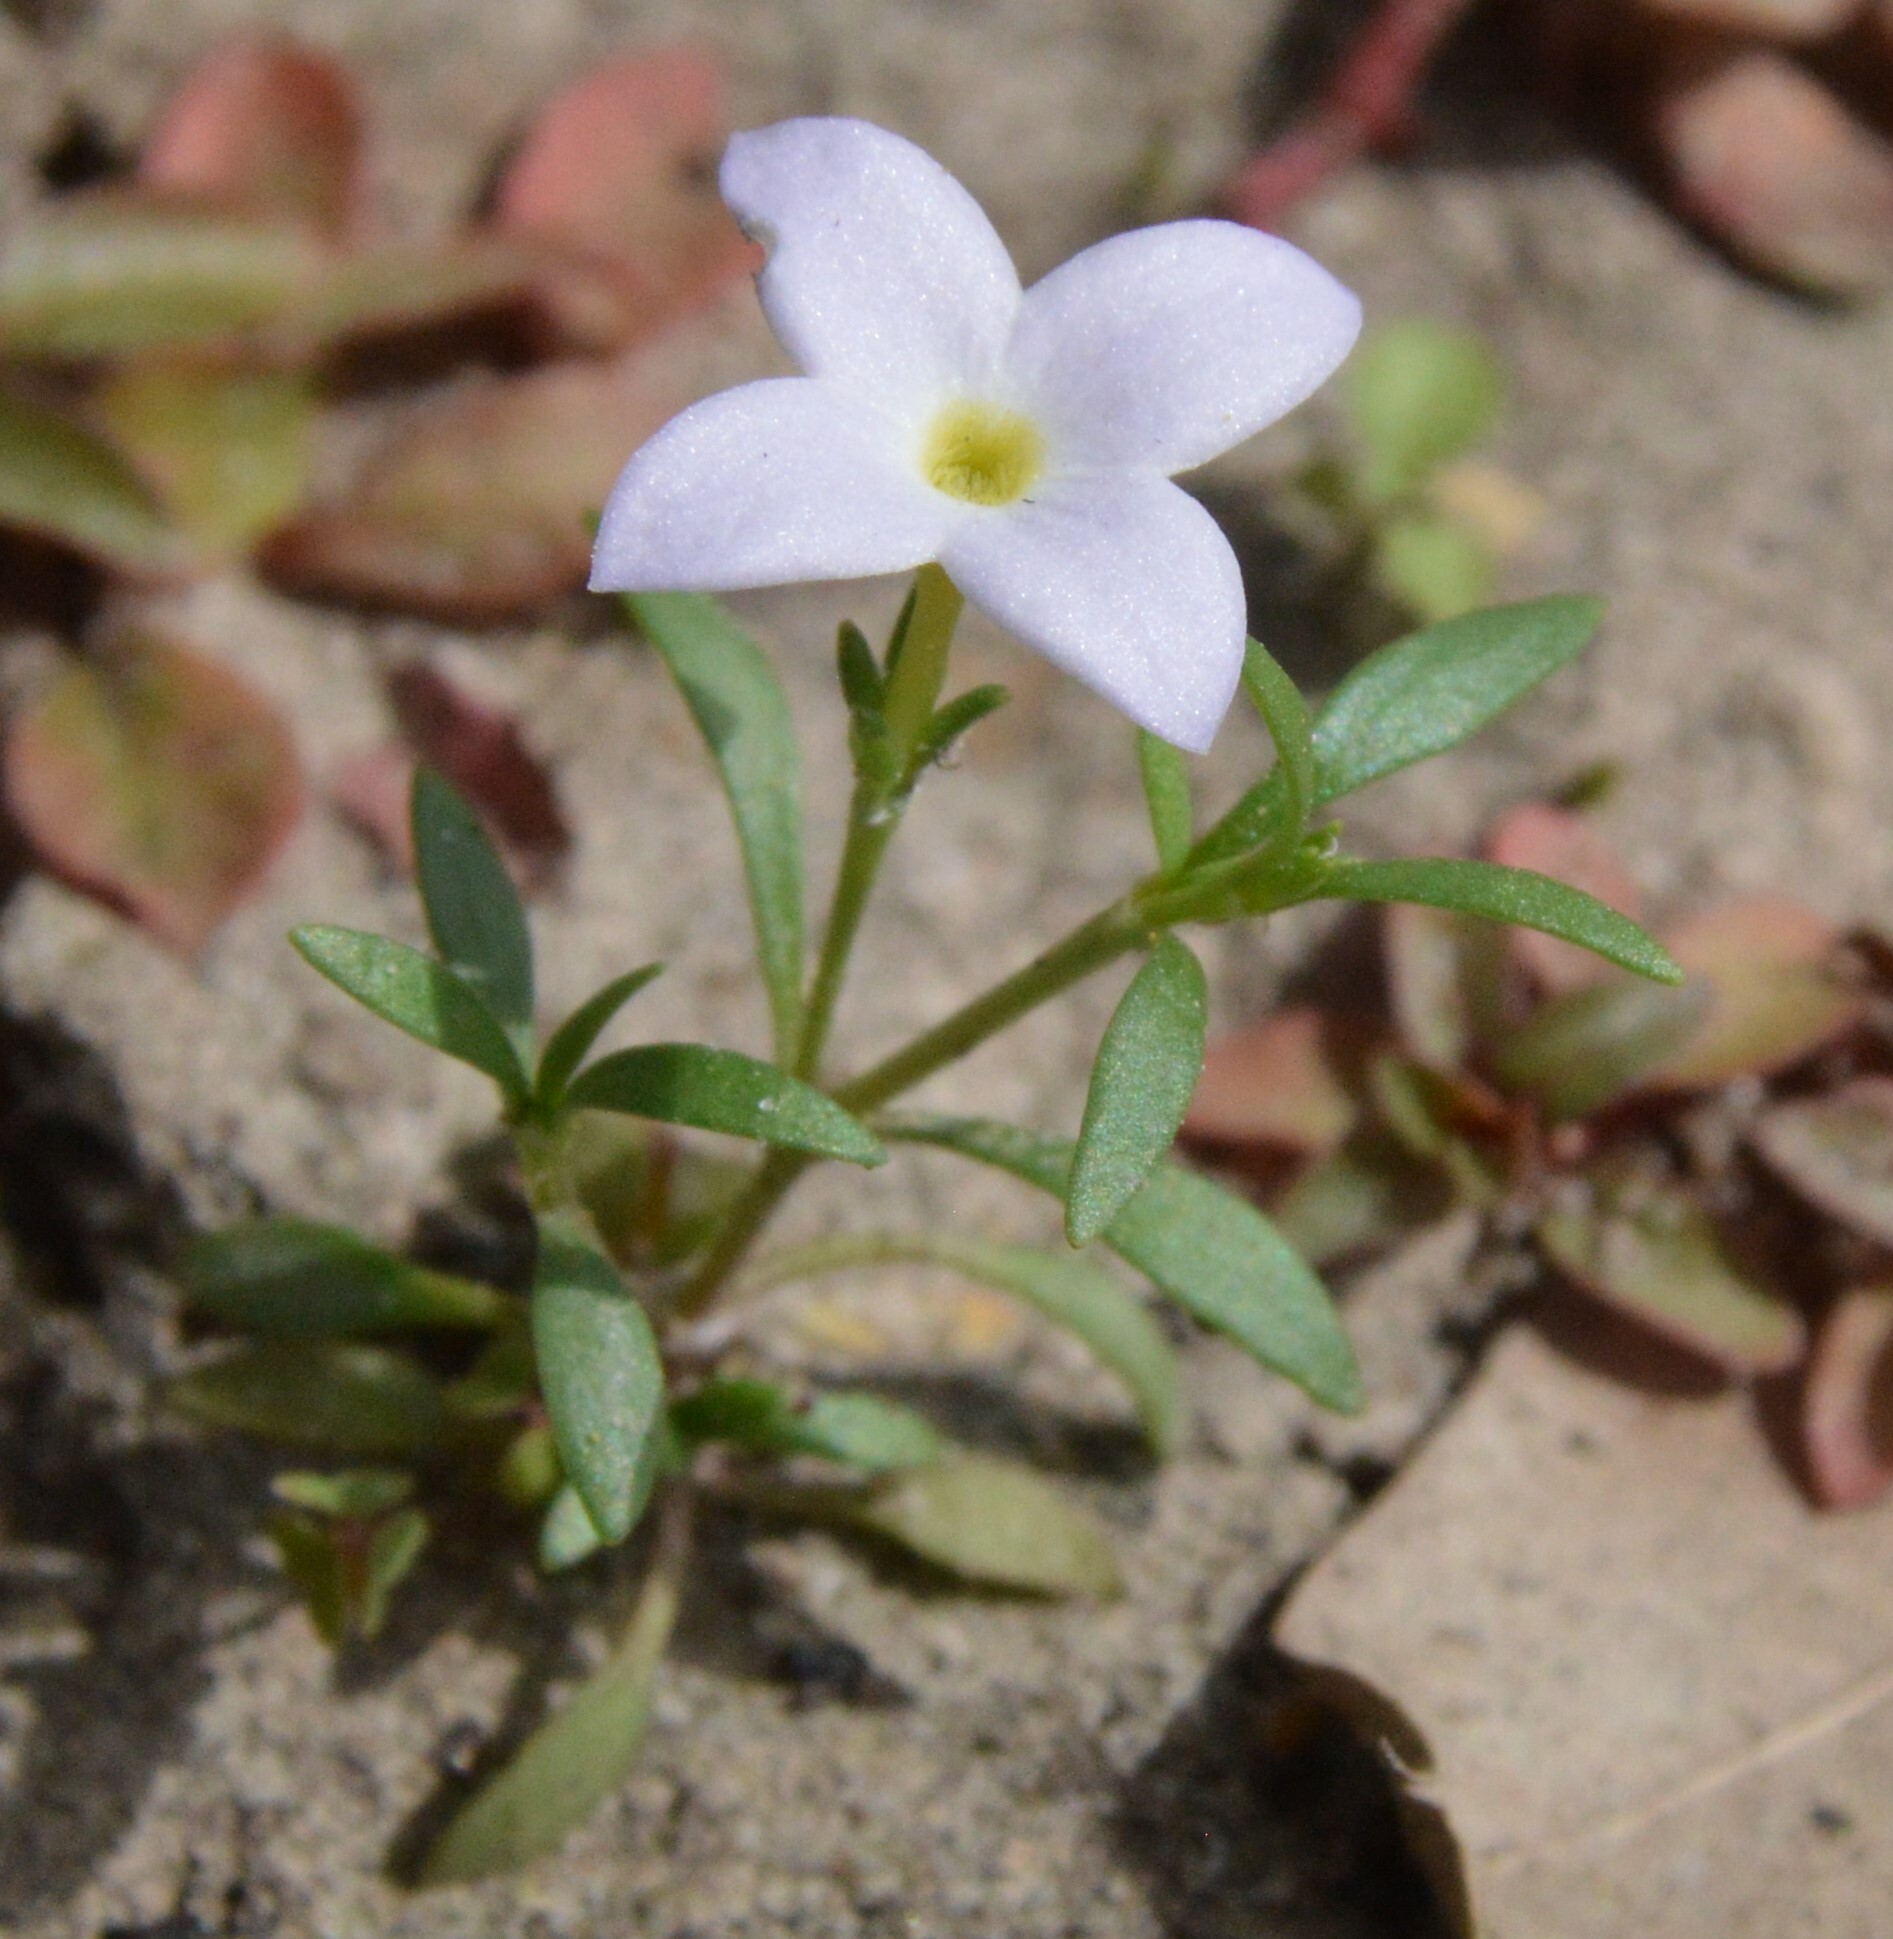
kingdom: Plantae
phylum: Tracheophyta
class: Magnoliopsida
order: Gentianales
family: Rubiaceae
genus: Houstonia
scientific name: Houstonia rosea
